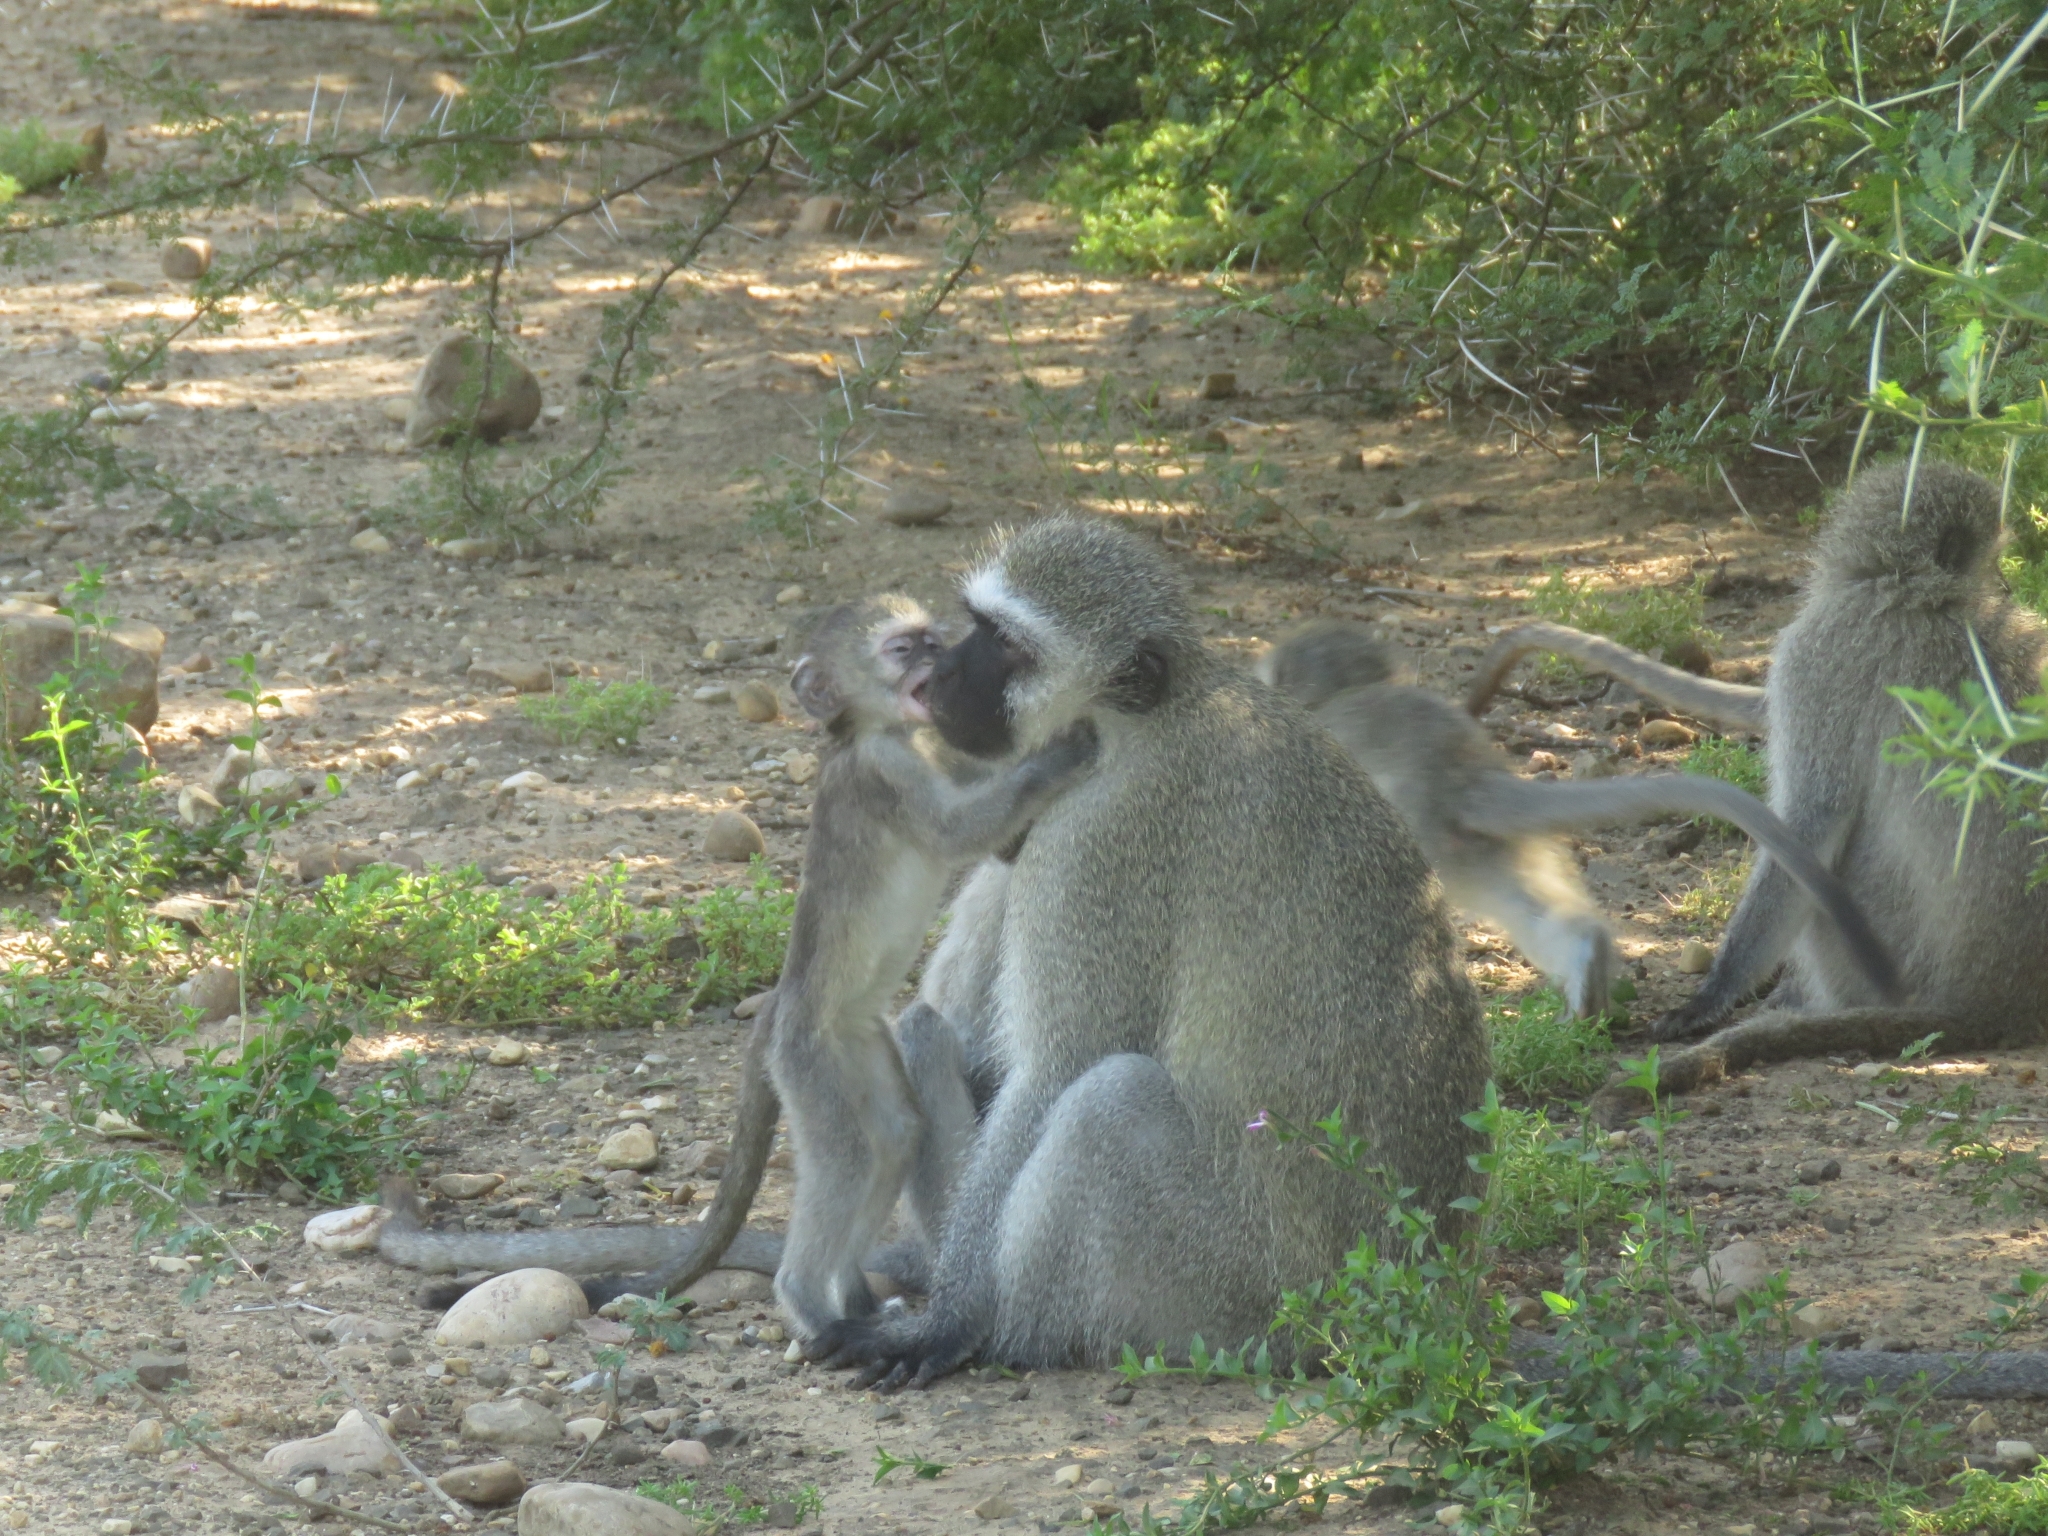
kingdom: Animalia
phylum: Chordata
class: Mammalia
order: Primates
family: Cercopithecidae
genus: Chlorocebus
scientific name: Chlorocebus pygerythrus
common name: Vervet monkey
